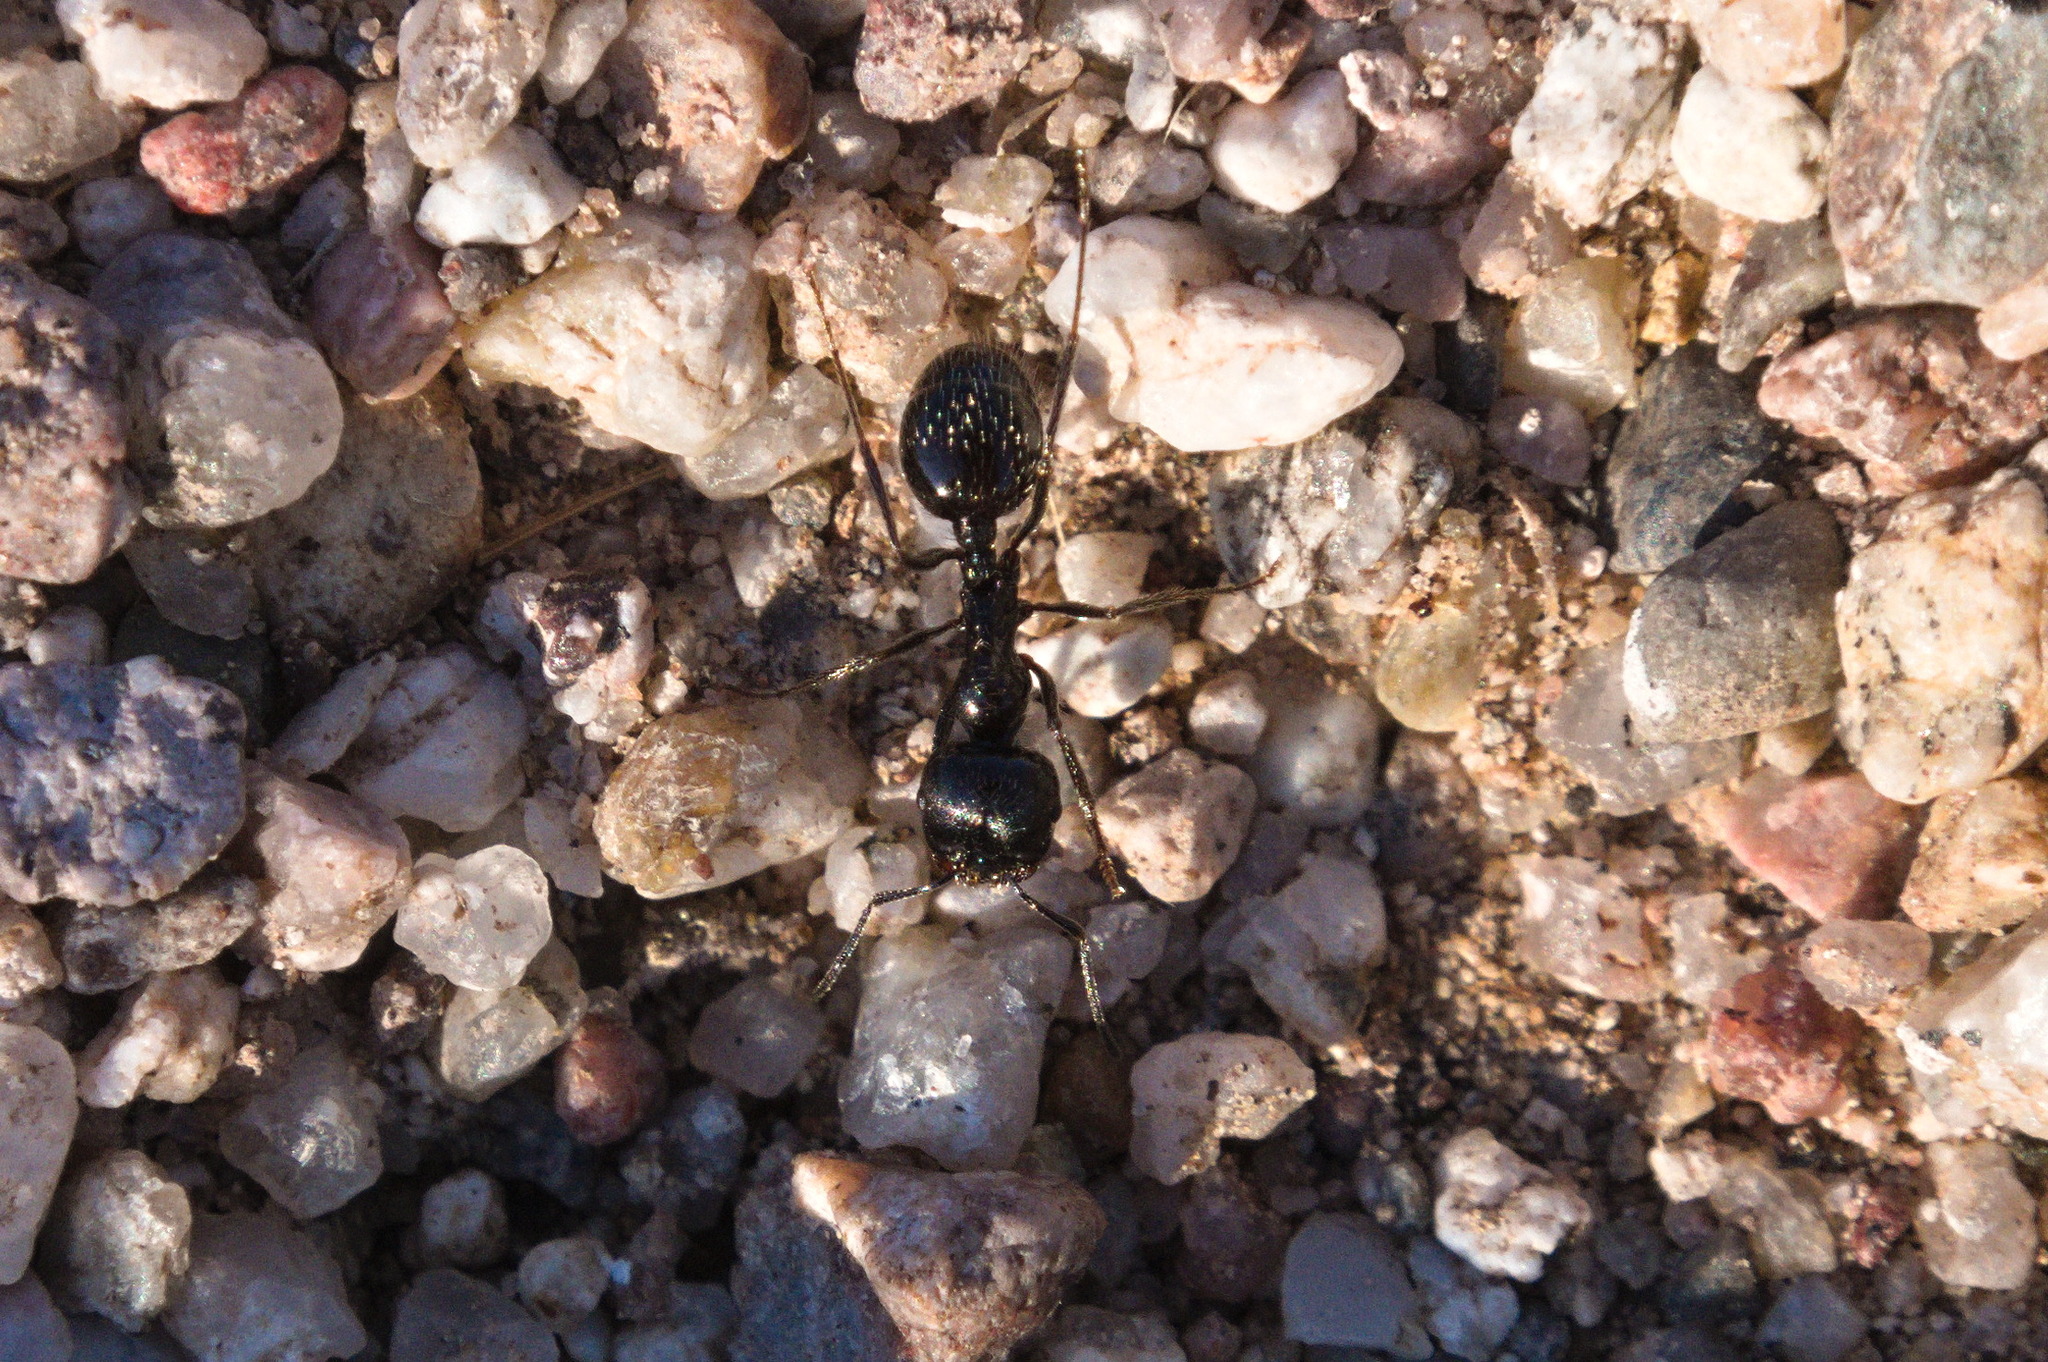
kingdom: Animalia
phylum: Arthropoda
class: Insecta
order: Hymenoptera
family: Formicidae
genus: Messor
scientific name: Messor pergandei
